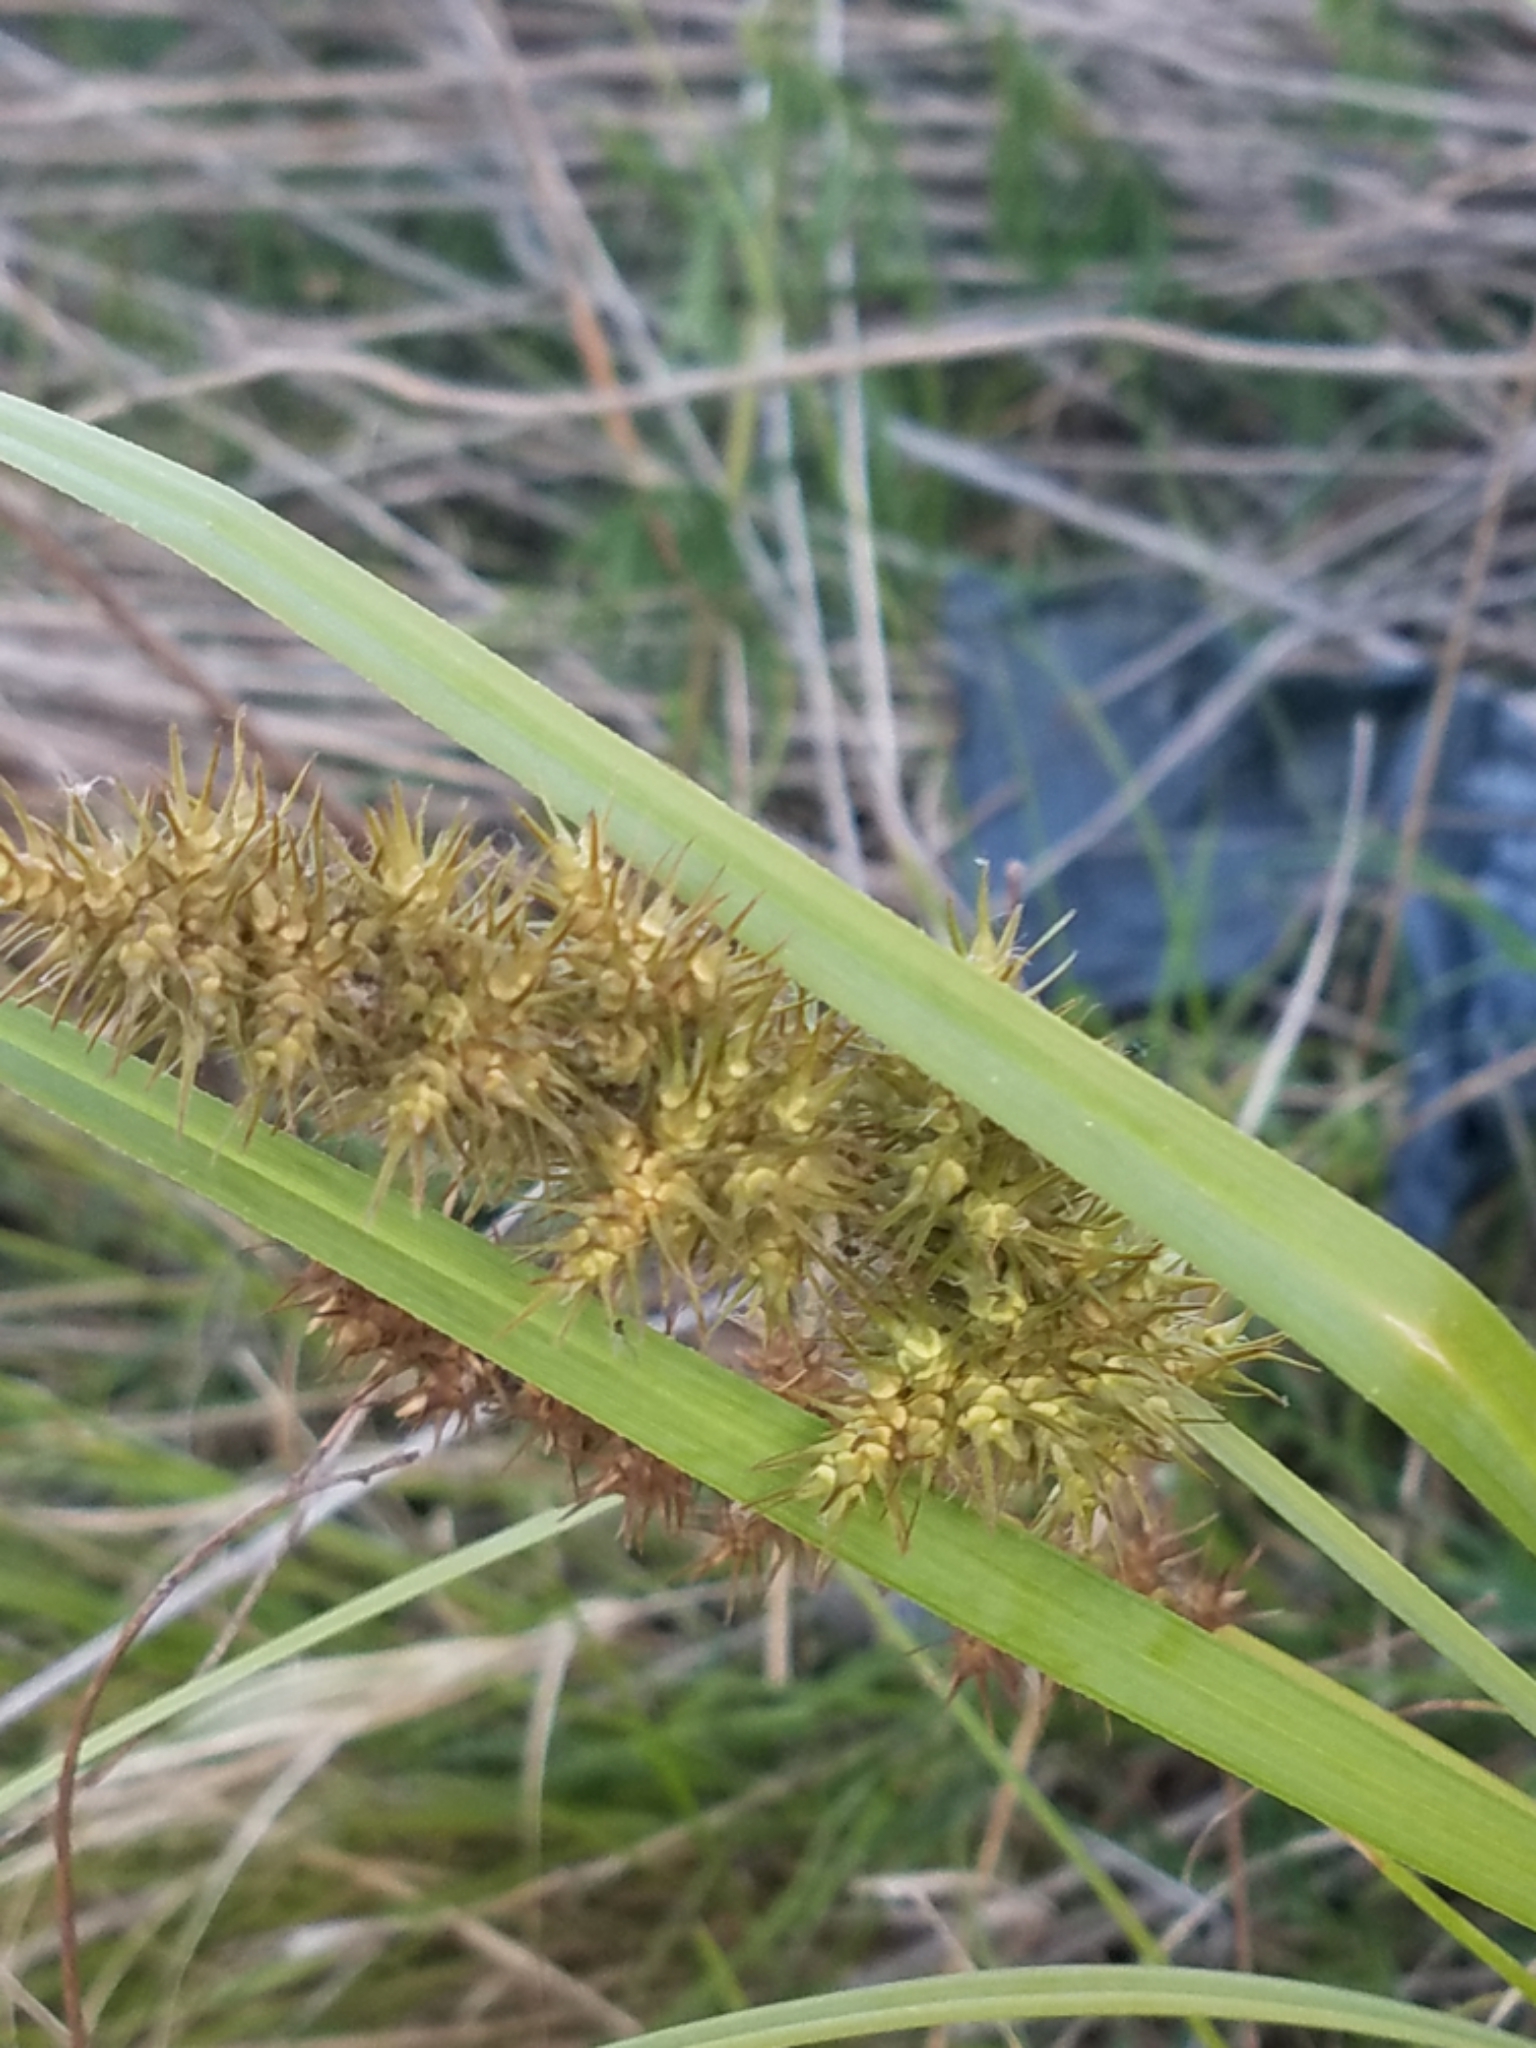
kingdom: Plantae
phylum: Tracheophyta
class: Liliopsida
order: Poales
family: Cyperaceae
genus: Carex
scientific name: Carex crus-corvi
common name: Crow-spur sedge
